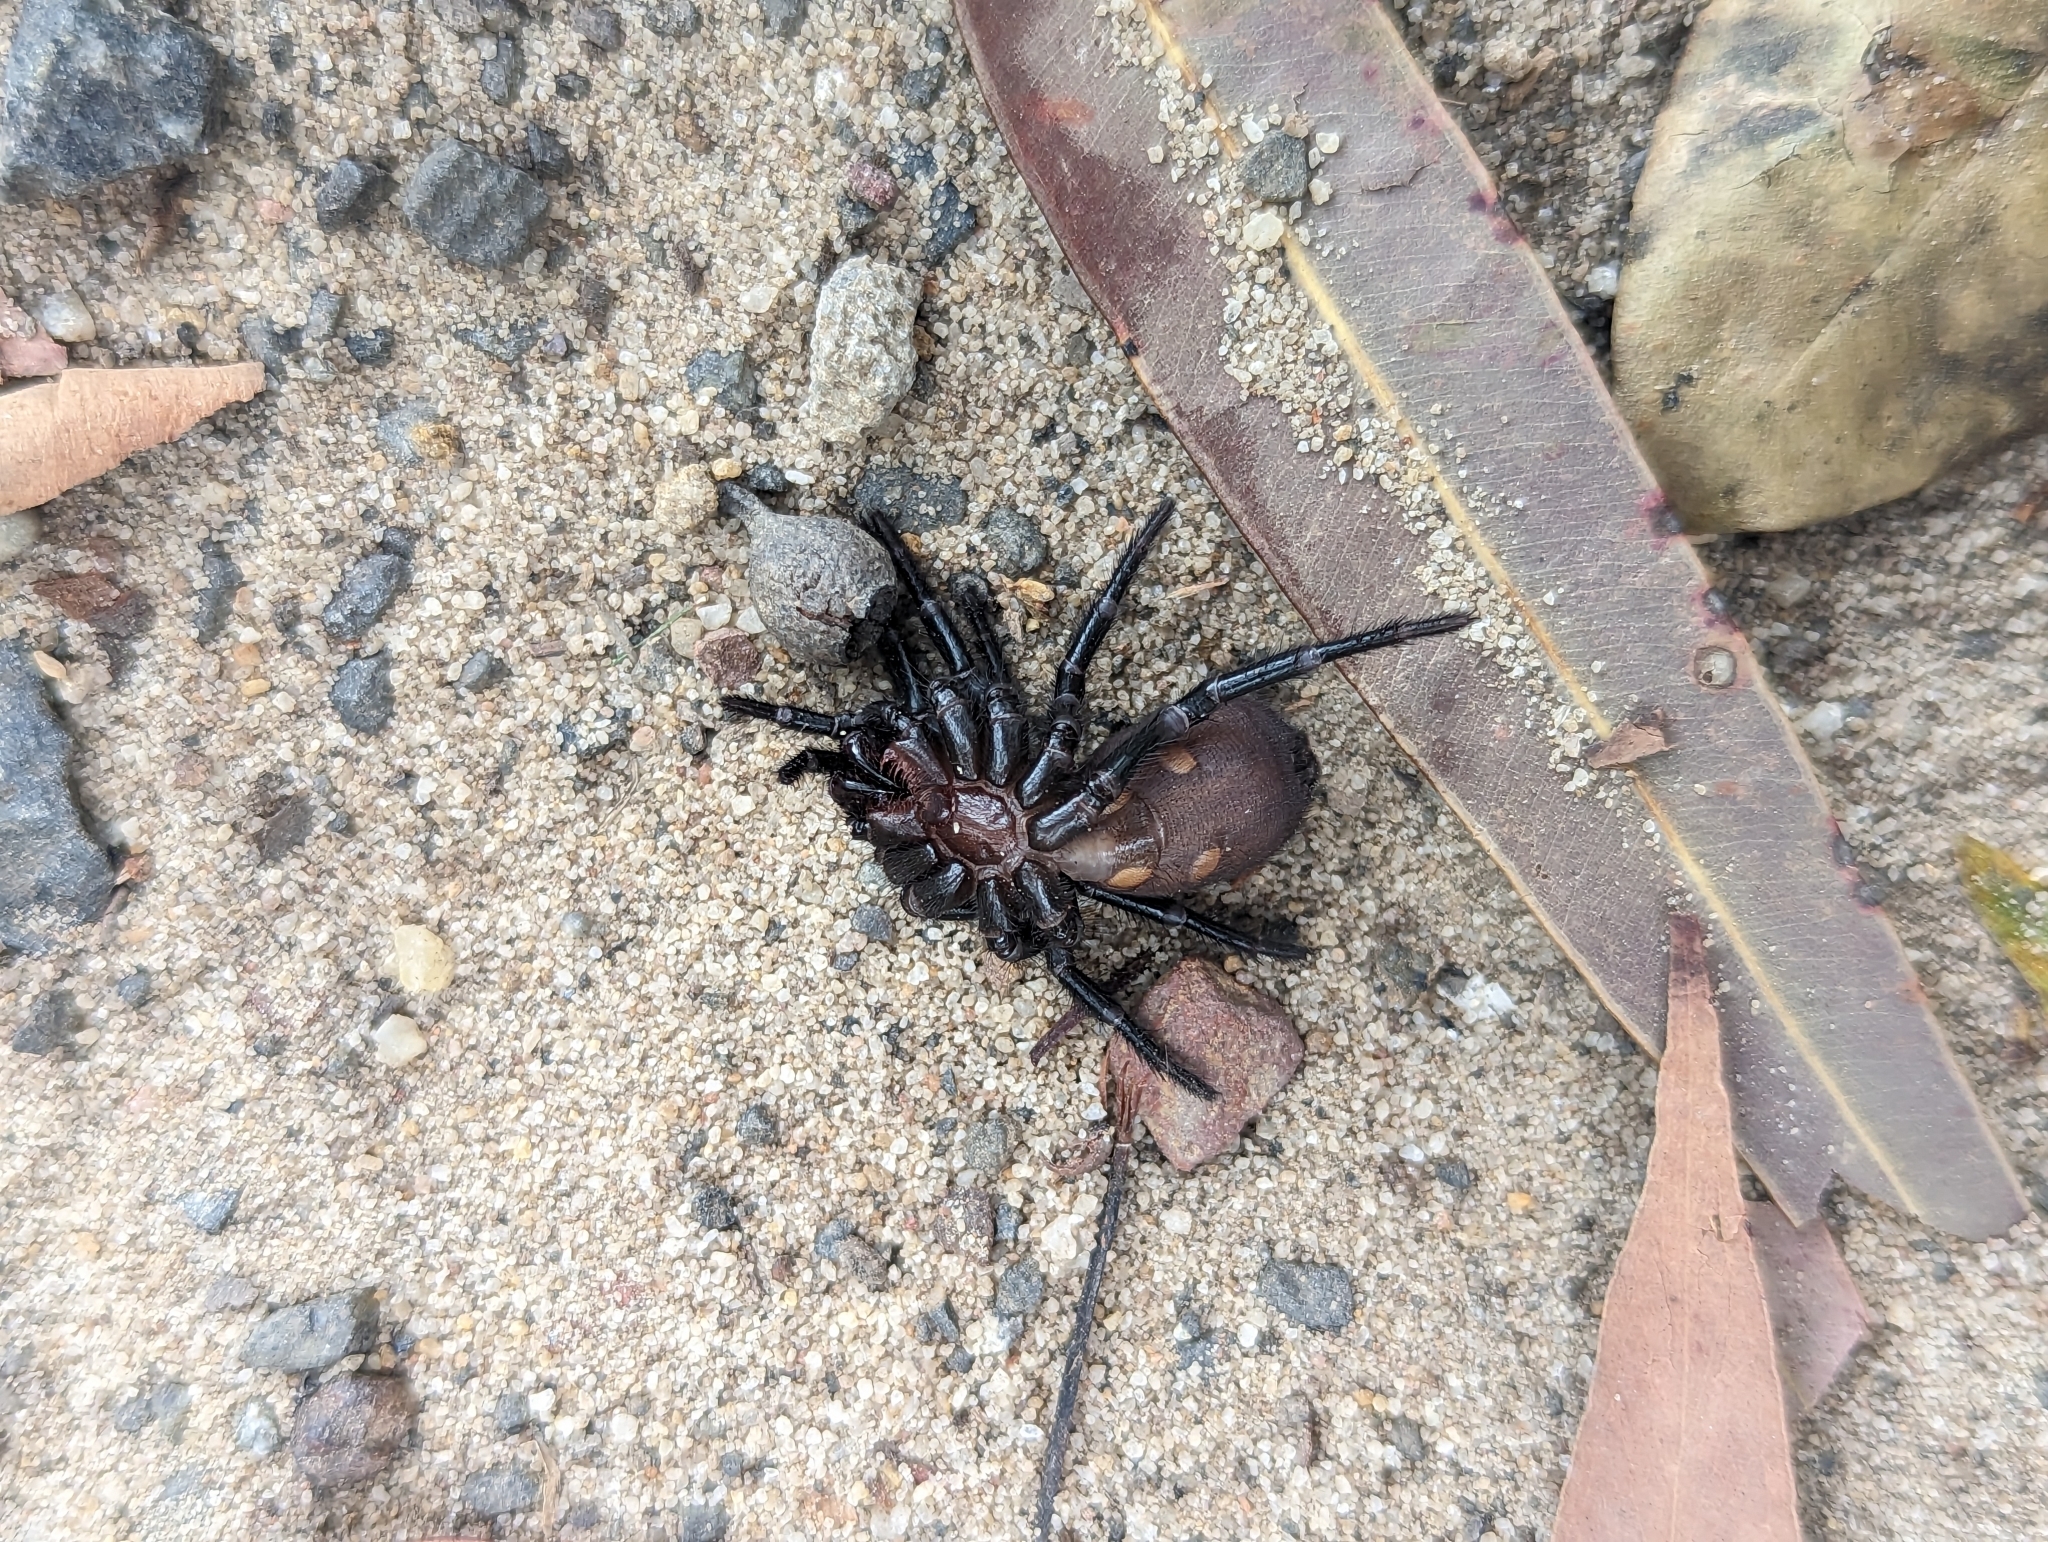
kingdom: Animalia
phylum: Arthropoda
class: Arachnida
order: Araneae
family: Atracidae
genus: Atrax
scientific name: Atrax robustus
